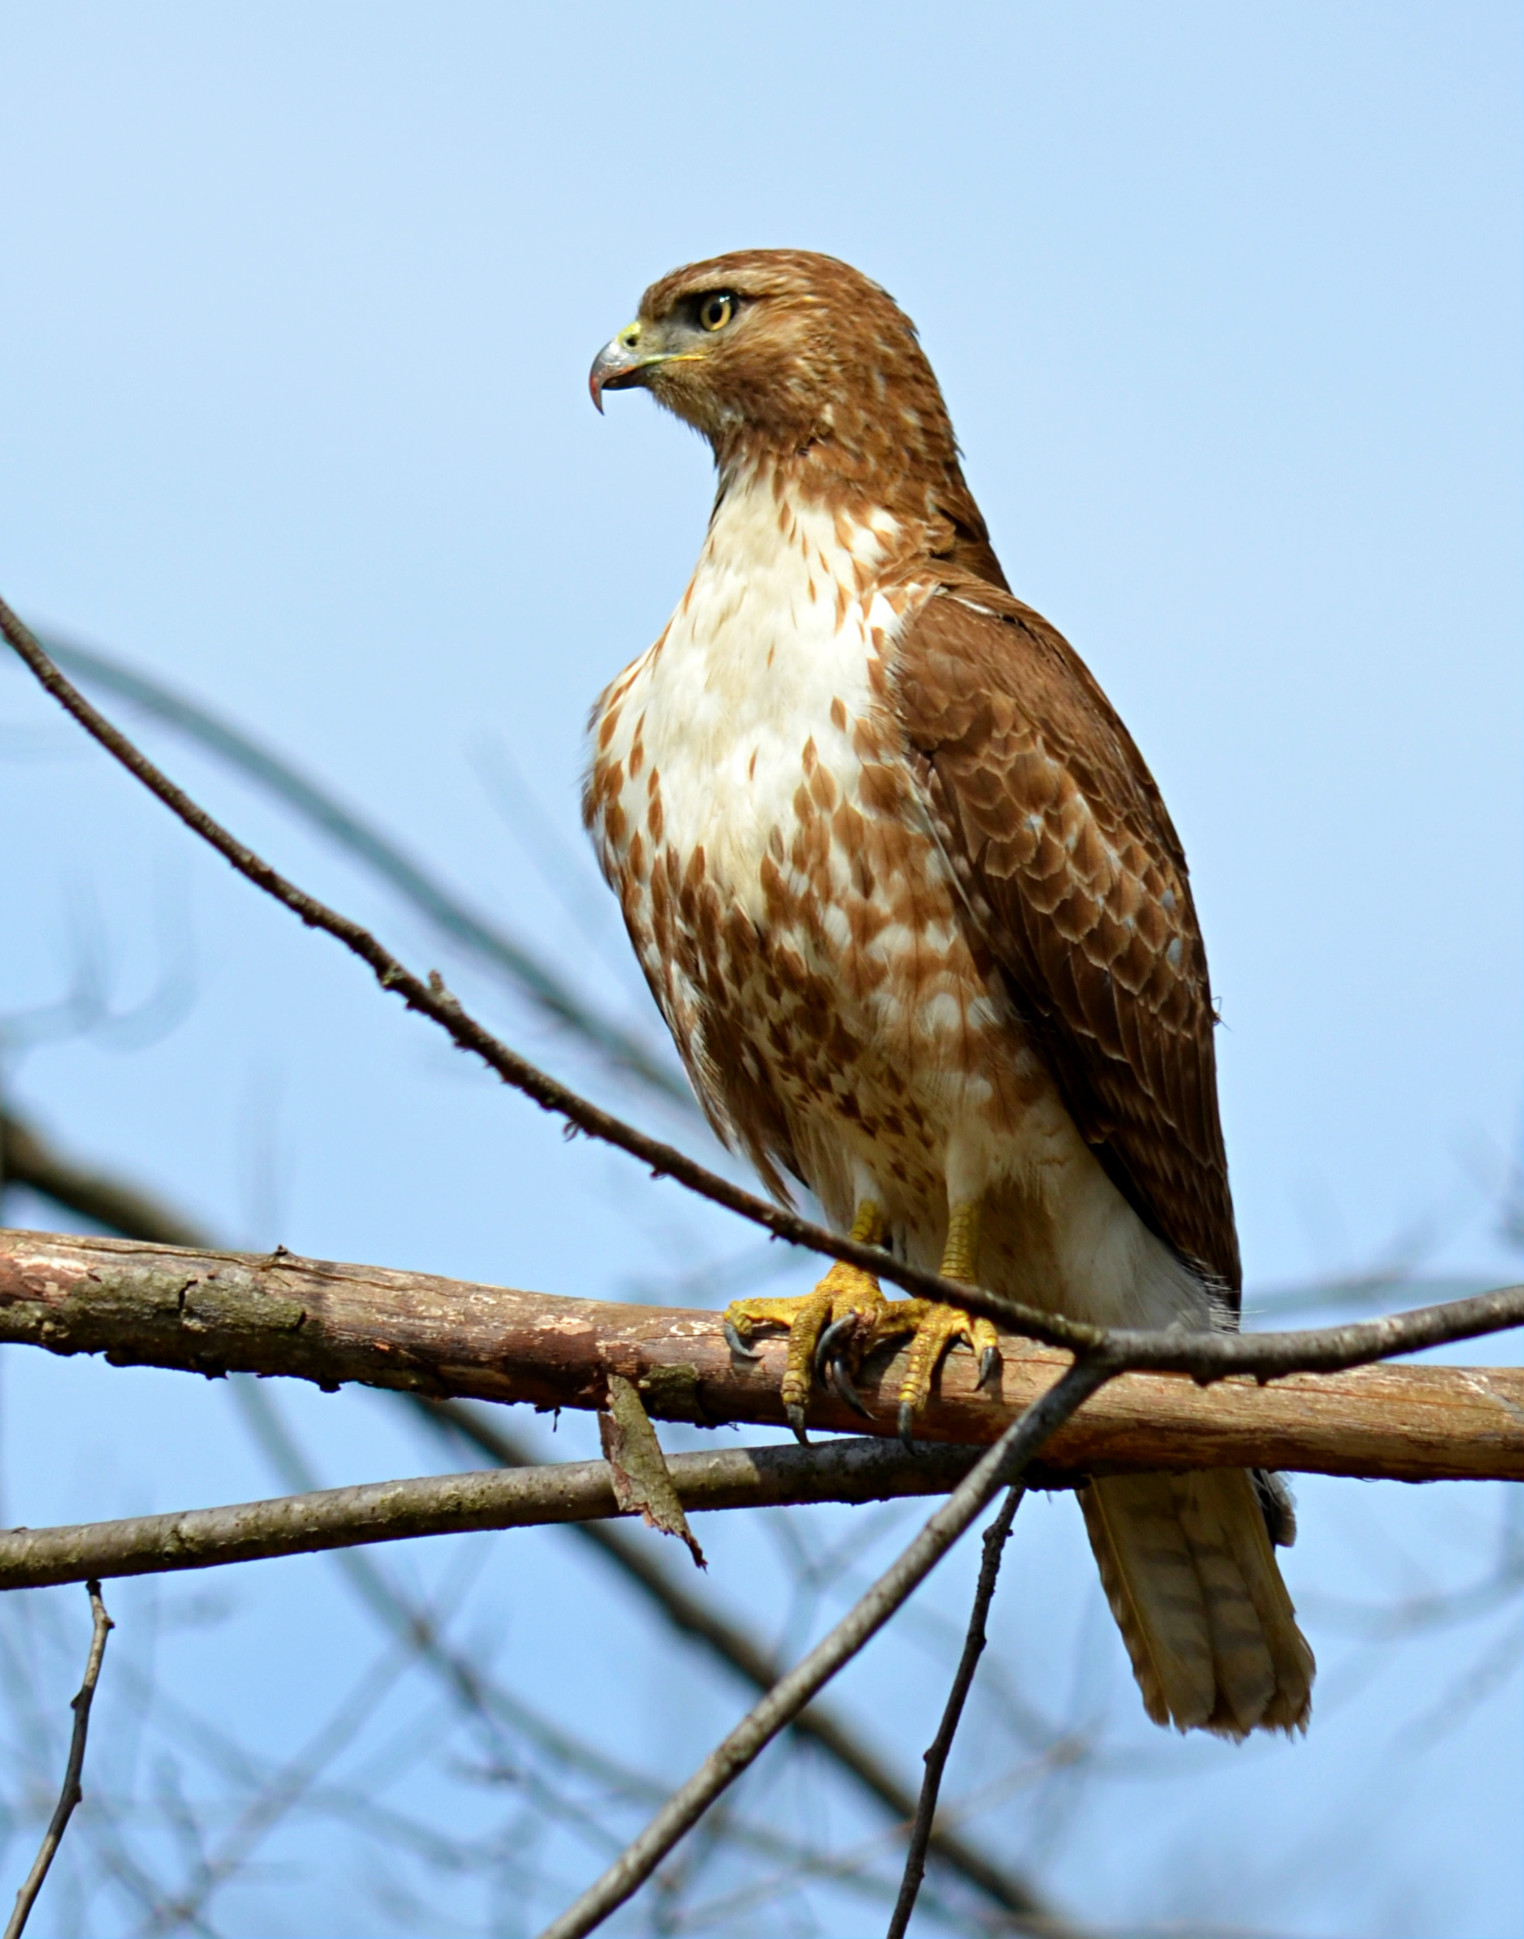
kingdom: Animalia
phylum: Chordata
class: Aves
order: Accipitriformes
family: Accipitridae
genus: Buteo
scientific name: Buteo jamaicensis
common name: Red-tailed hawk
